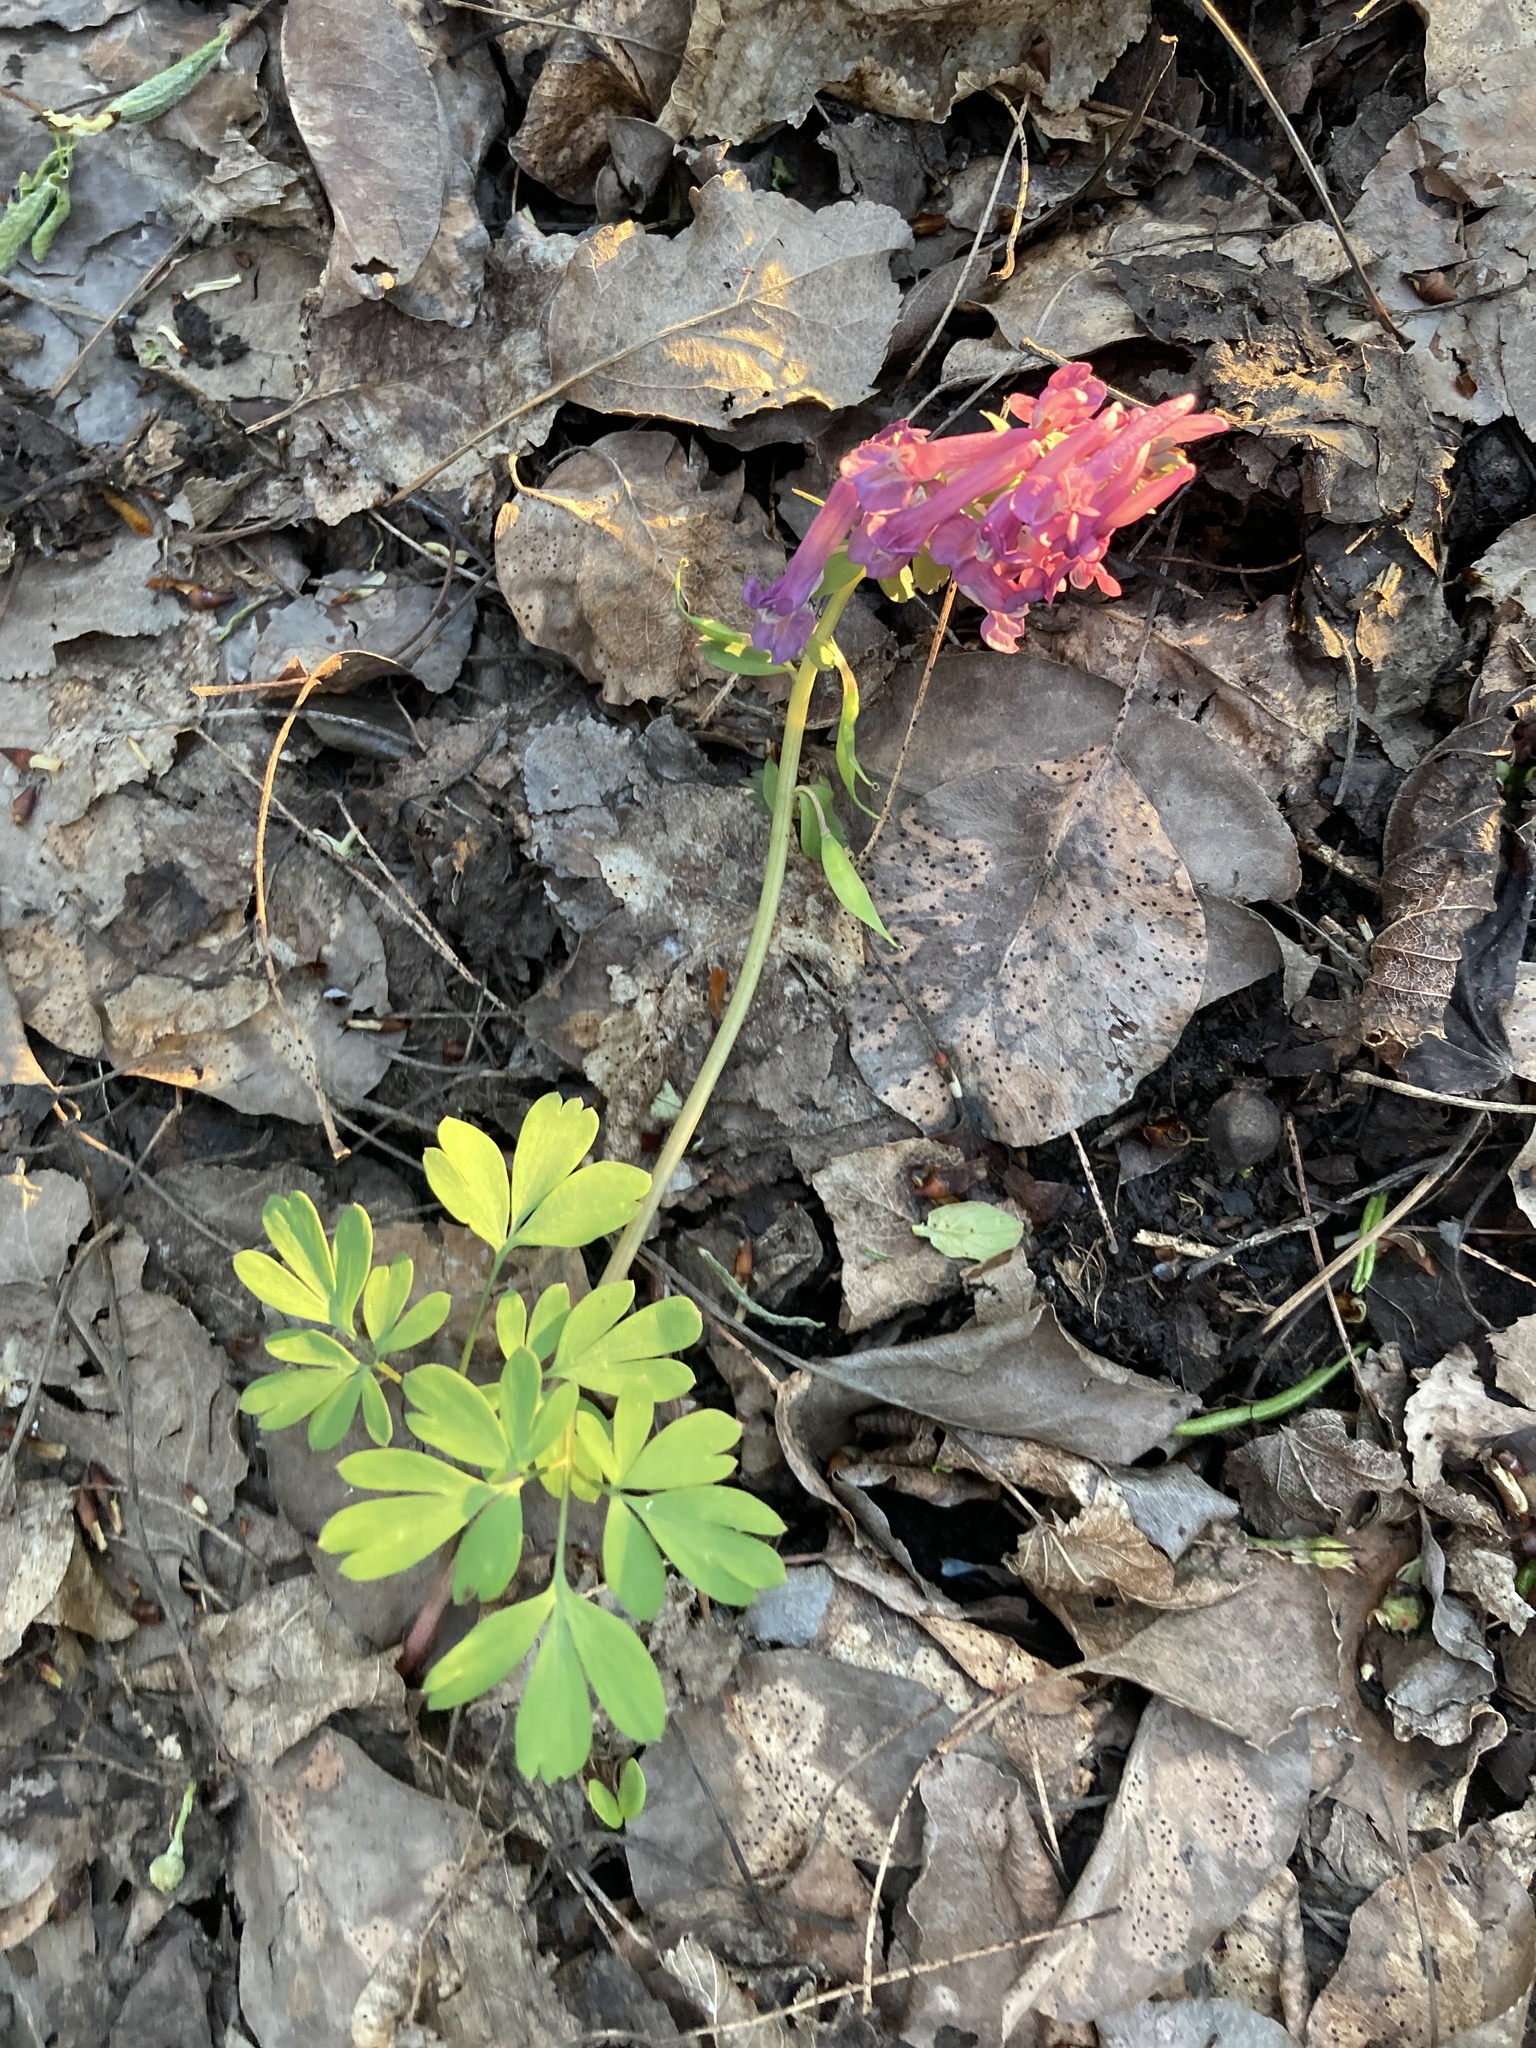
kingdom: Plantae
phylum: Tracheophyta
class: Magnoliopsida
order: Ranunculales
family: Papaveraceae
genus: Corydalis
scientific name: Corydalis solida
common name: Bird-in-a-bush
